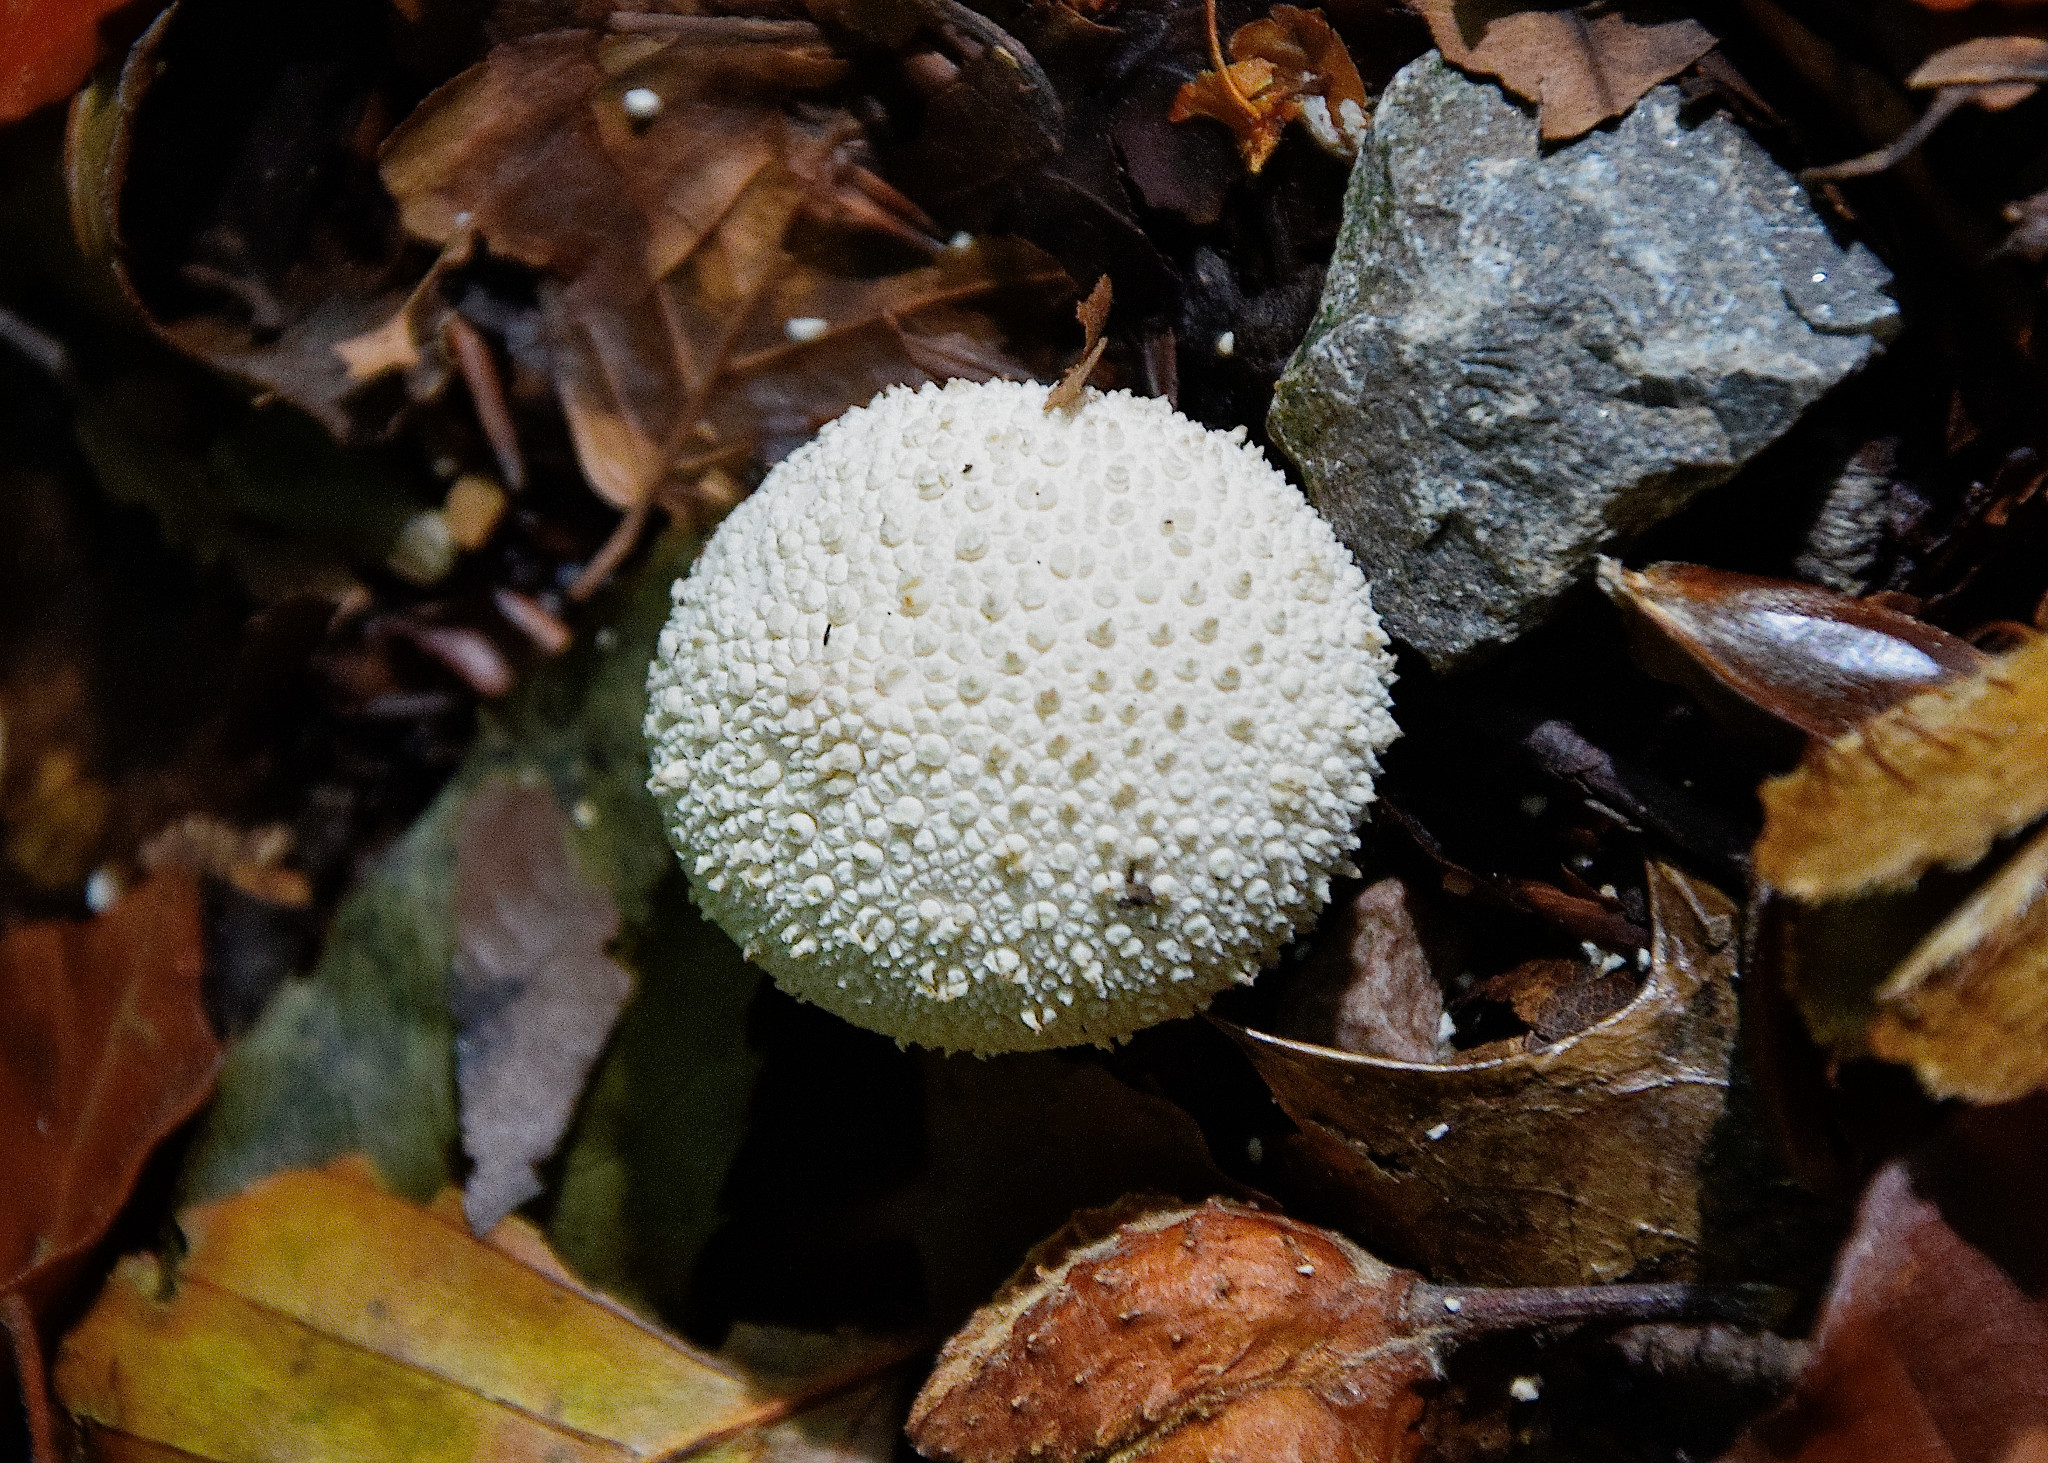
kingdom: Fungi
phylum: Basidiomycota
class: Agaricomycetes
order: Agaricales
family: Lycoperdaceae
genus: Lycoperdon
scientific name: Lycoperdon perlatum
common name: Common puffball
